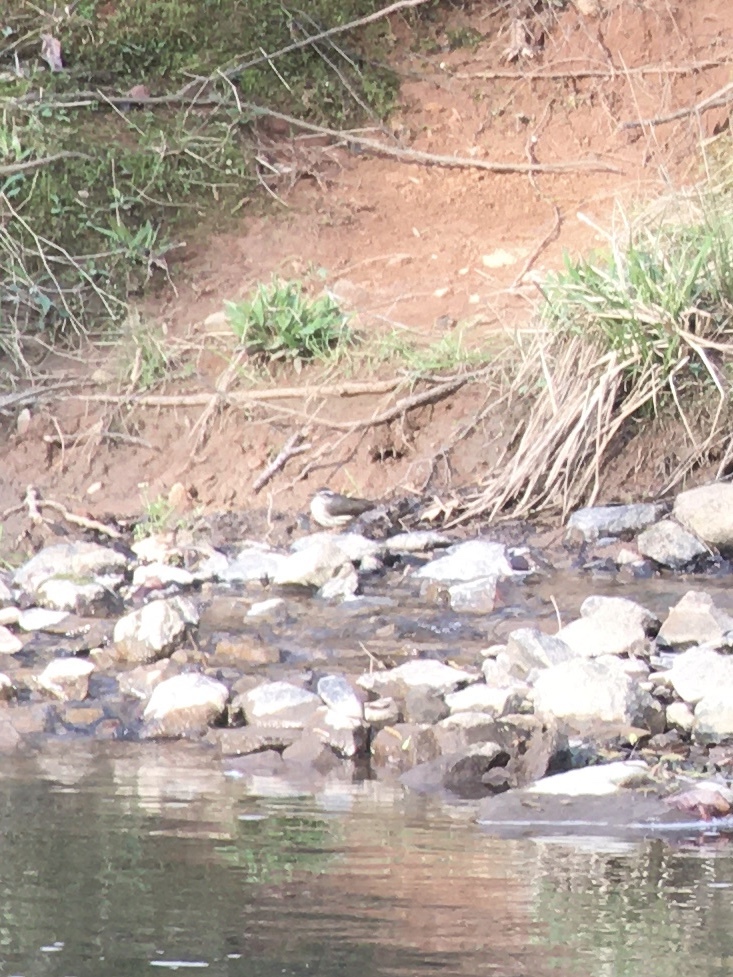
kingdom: Animalia
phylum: Chordata
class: Aves
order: Passeriformes
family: Parulidae
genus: Parkesia
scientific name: Parkesia motacilla
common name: Louisiana waterthrush
